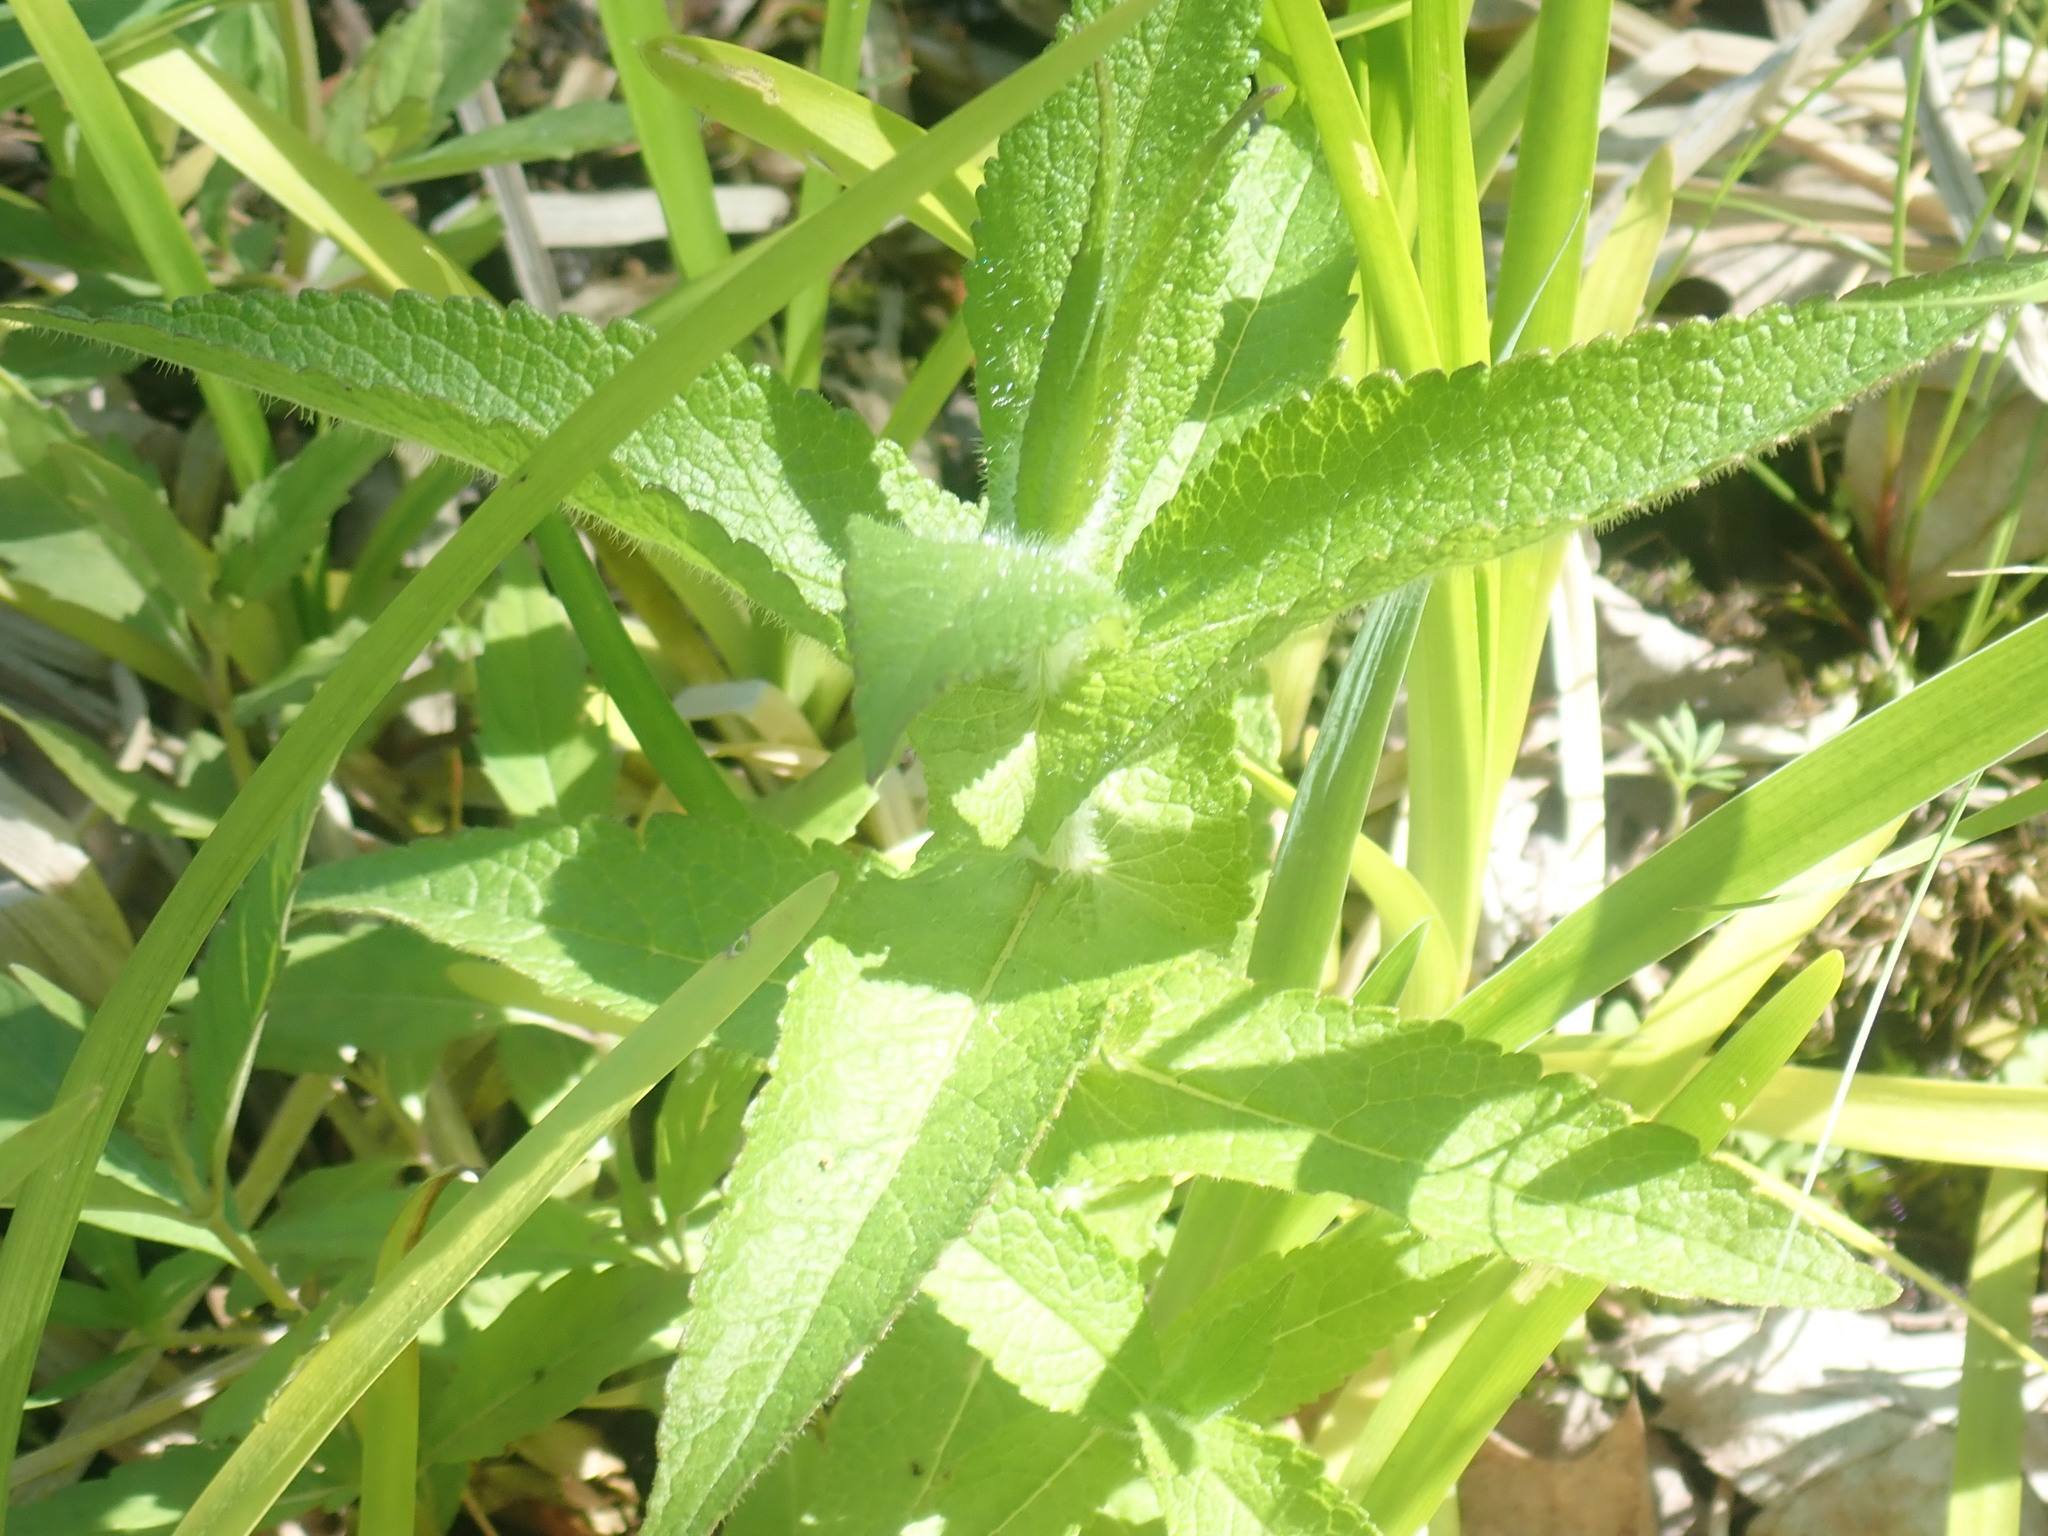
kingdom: Plantae
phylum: Tracheophyta
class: Magnoliopsida
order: Asterales
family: Asteraceae
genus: Eupatorium
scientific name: Eupatorium perfoliatum
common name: Boneset
